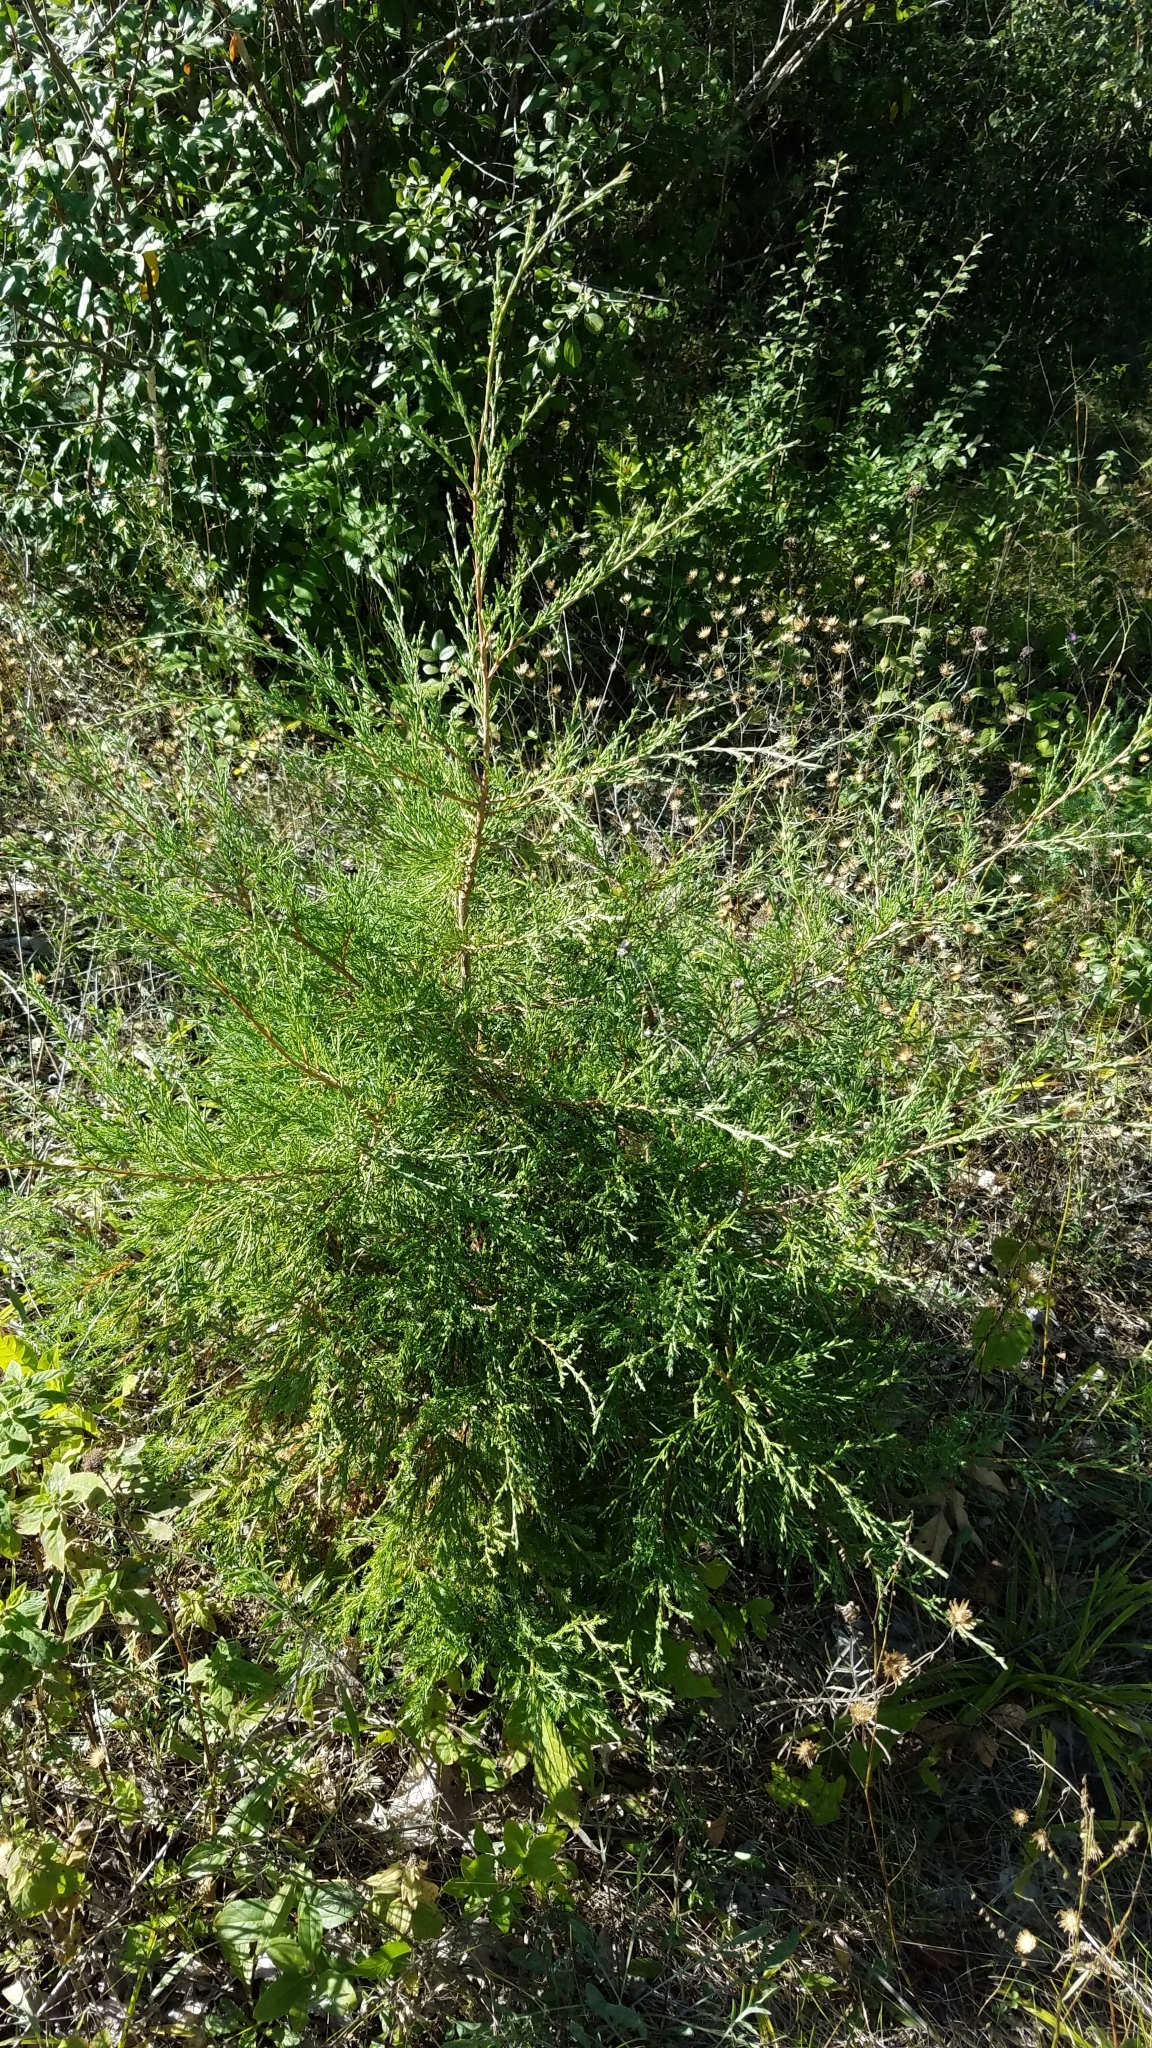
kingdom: Plantae
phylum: Tracheophyta
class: Pinopsida
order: Pinales
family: Cupressaceae
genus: Juniperus
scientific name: Juniperus virginiana
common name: Red juniper
